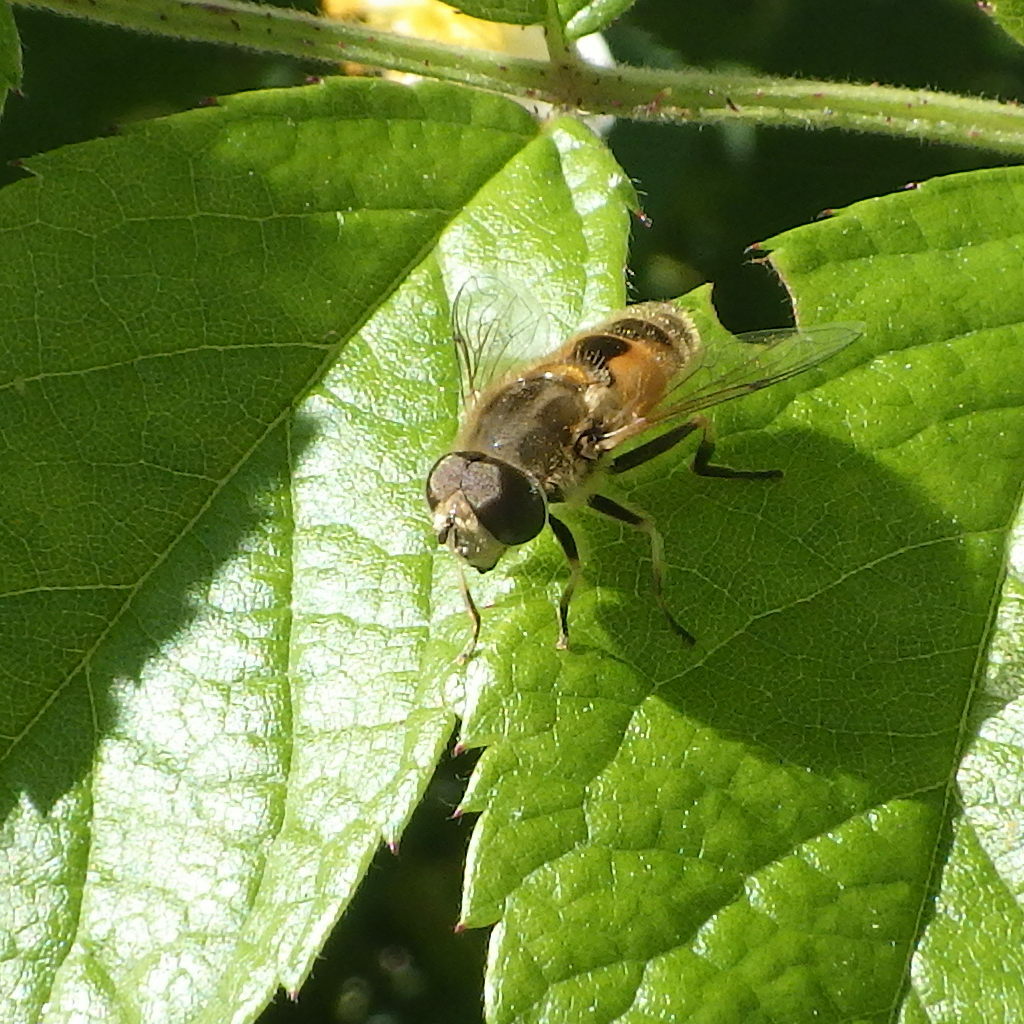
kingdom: Animalia
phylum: Arthropoda
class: Insecta
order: Diptera
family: Syrphidae
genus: Eristalis
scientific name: Eristalis arbustorum
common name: Hover fly
